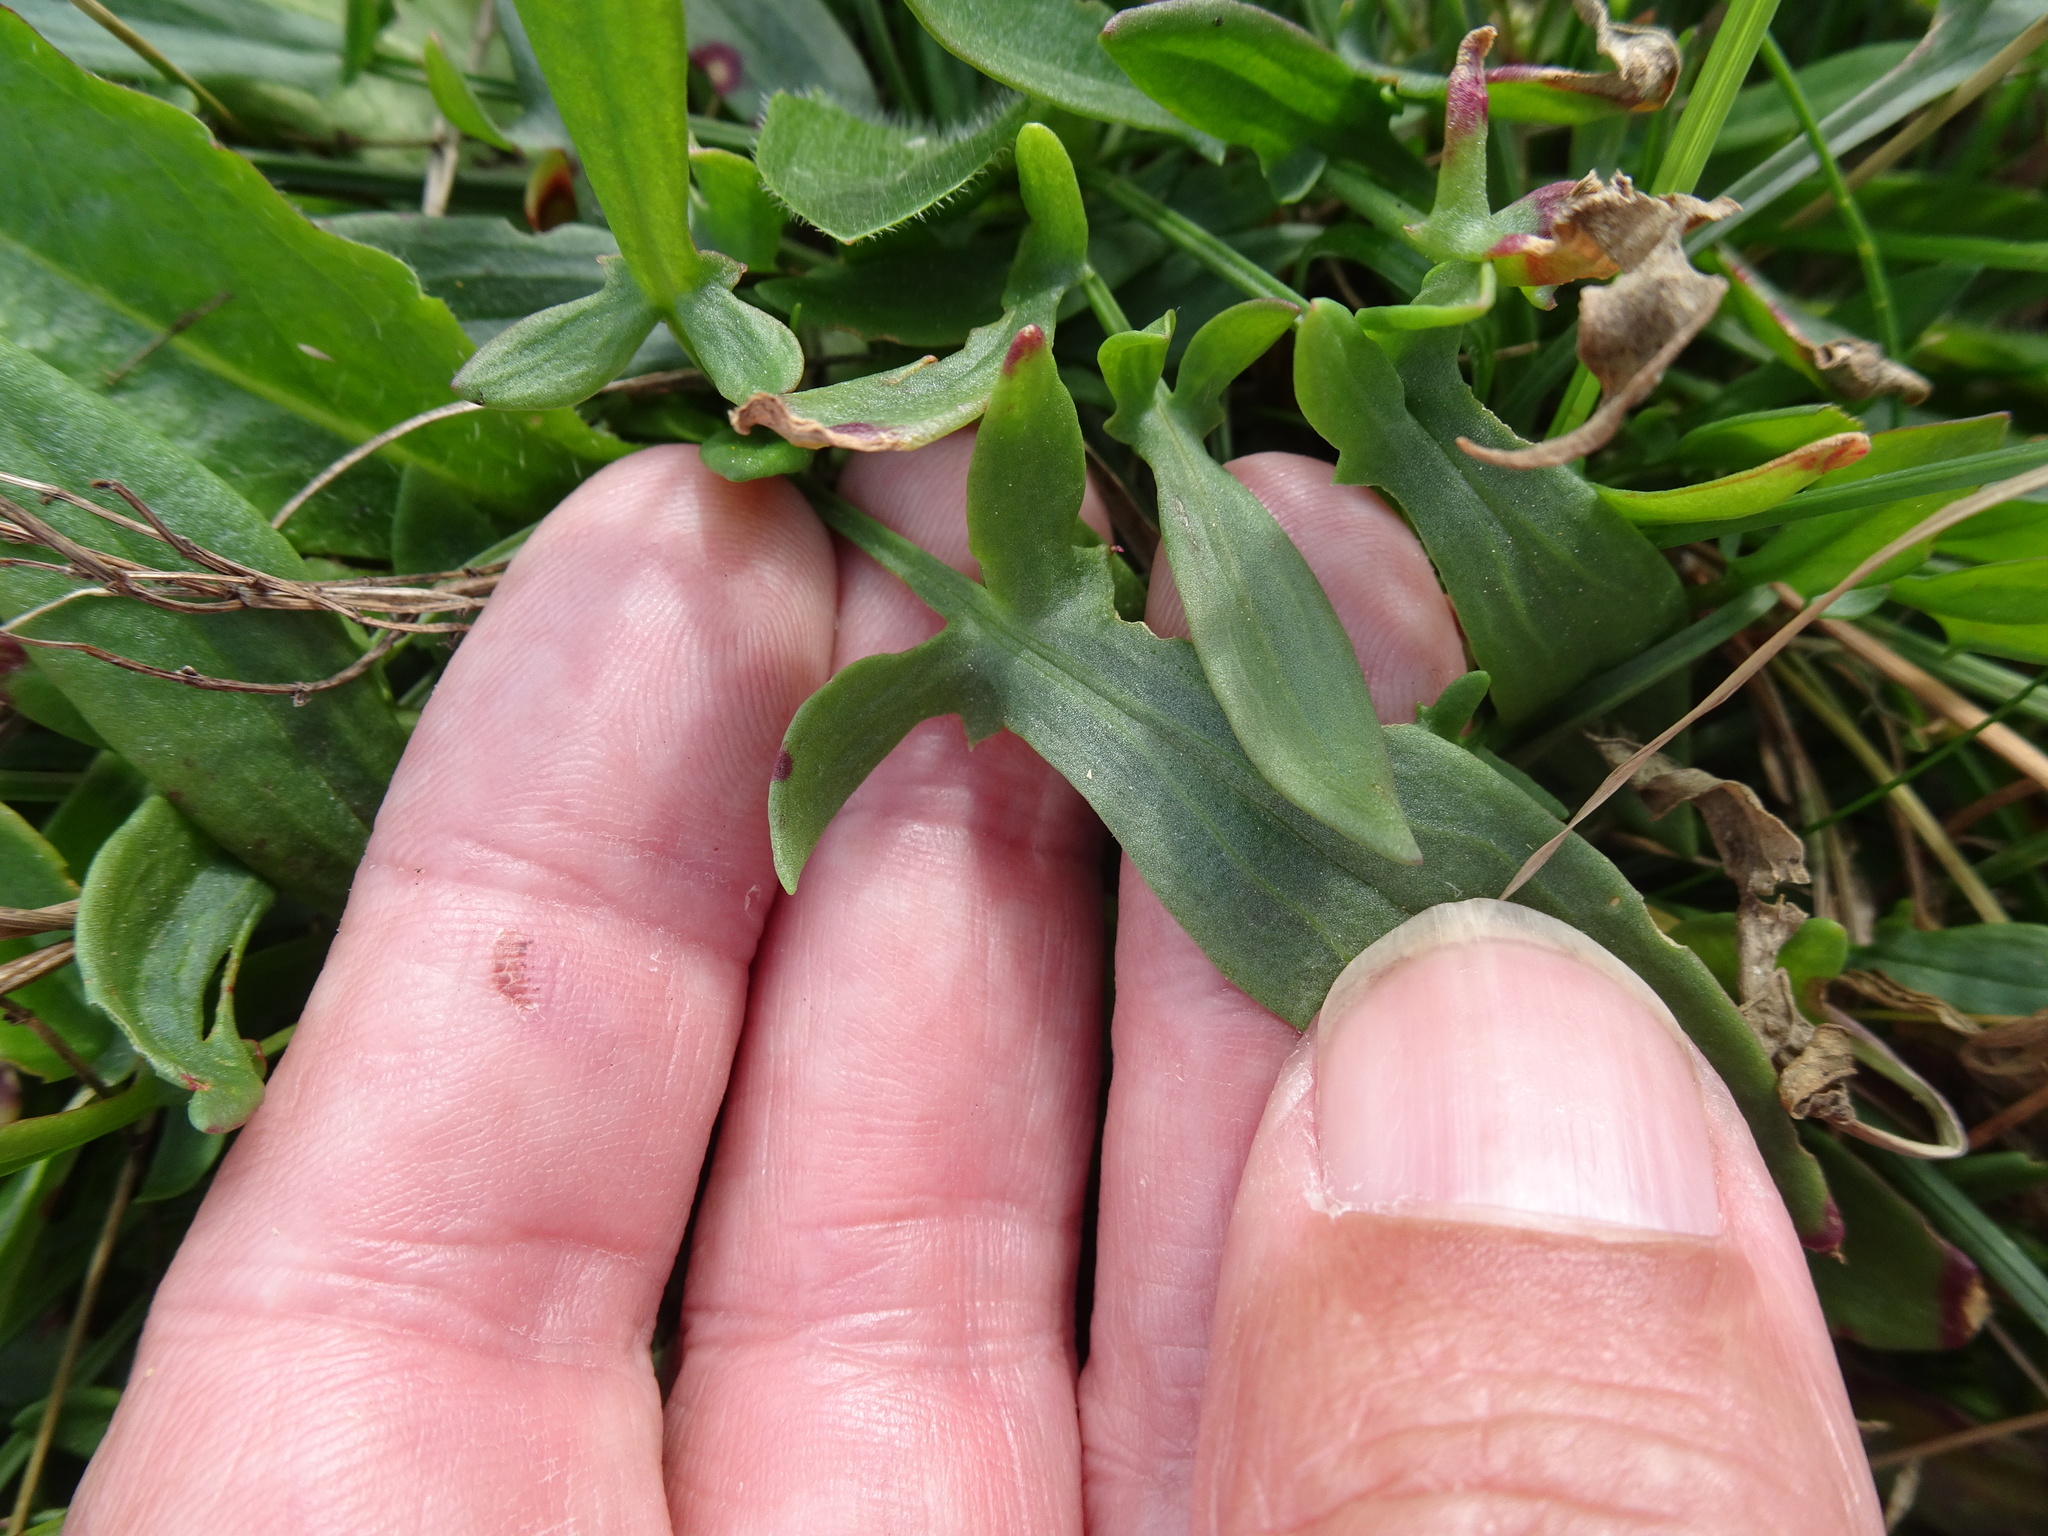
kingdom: Plantae
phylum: Tracheophyta
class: Magnoliopsida
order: Caryophyllales
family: Polygonaceae
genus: Rumex
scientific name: Rumex acetosella
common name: Common sheep sorrel
